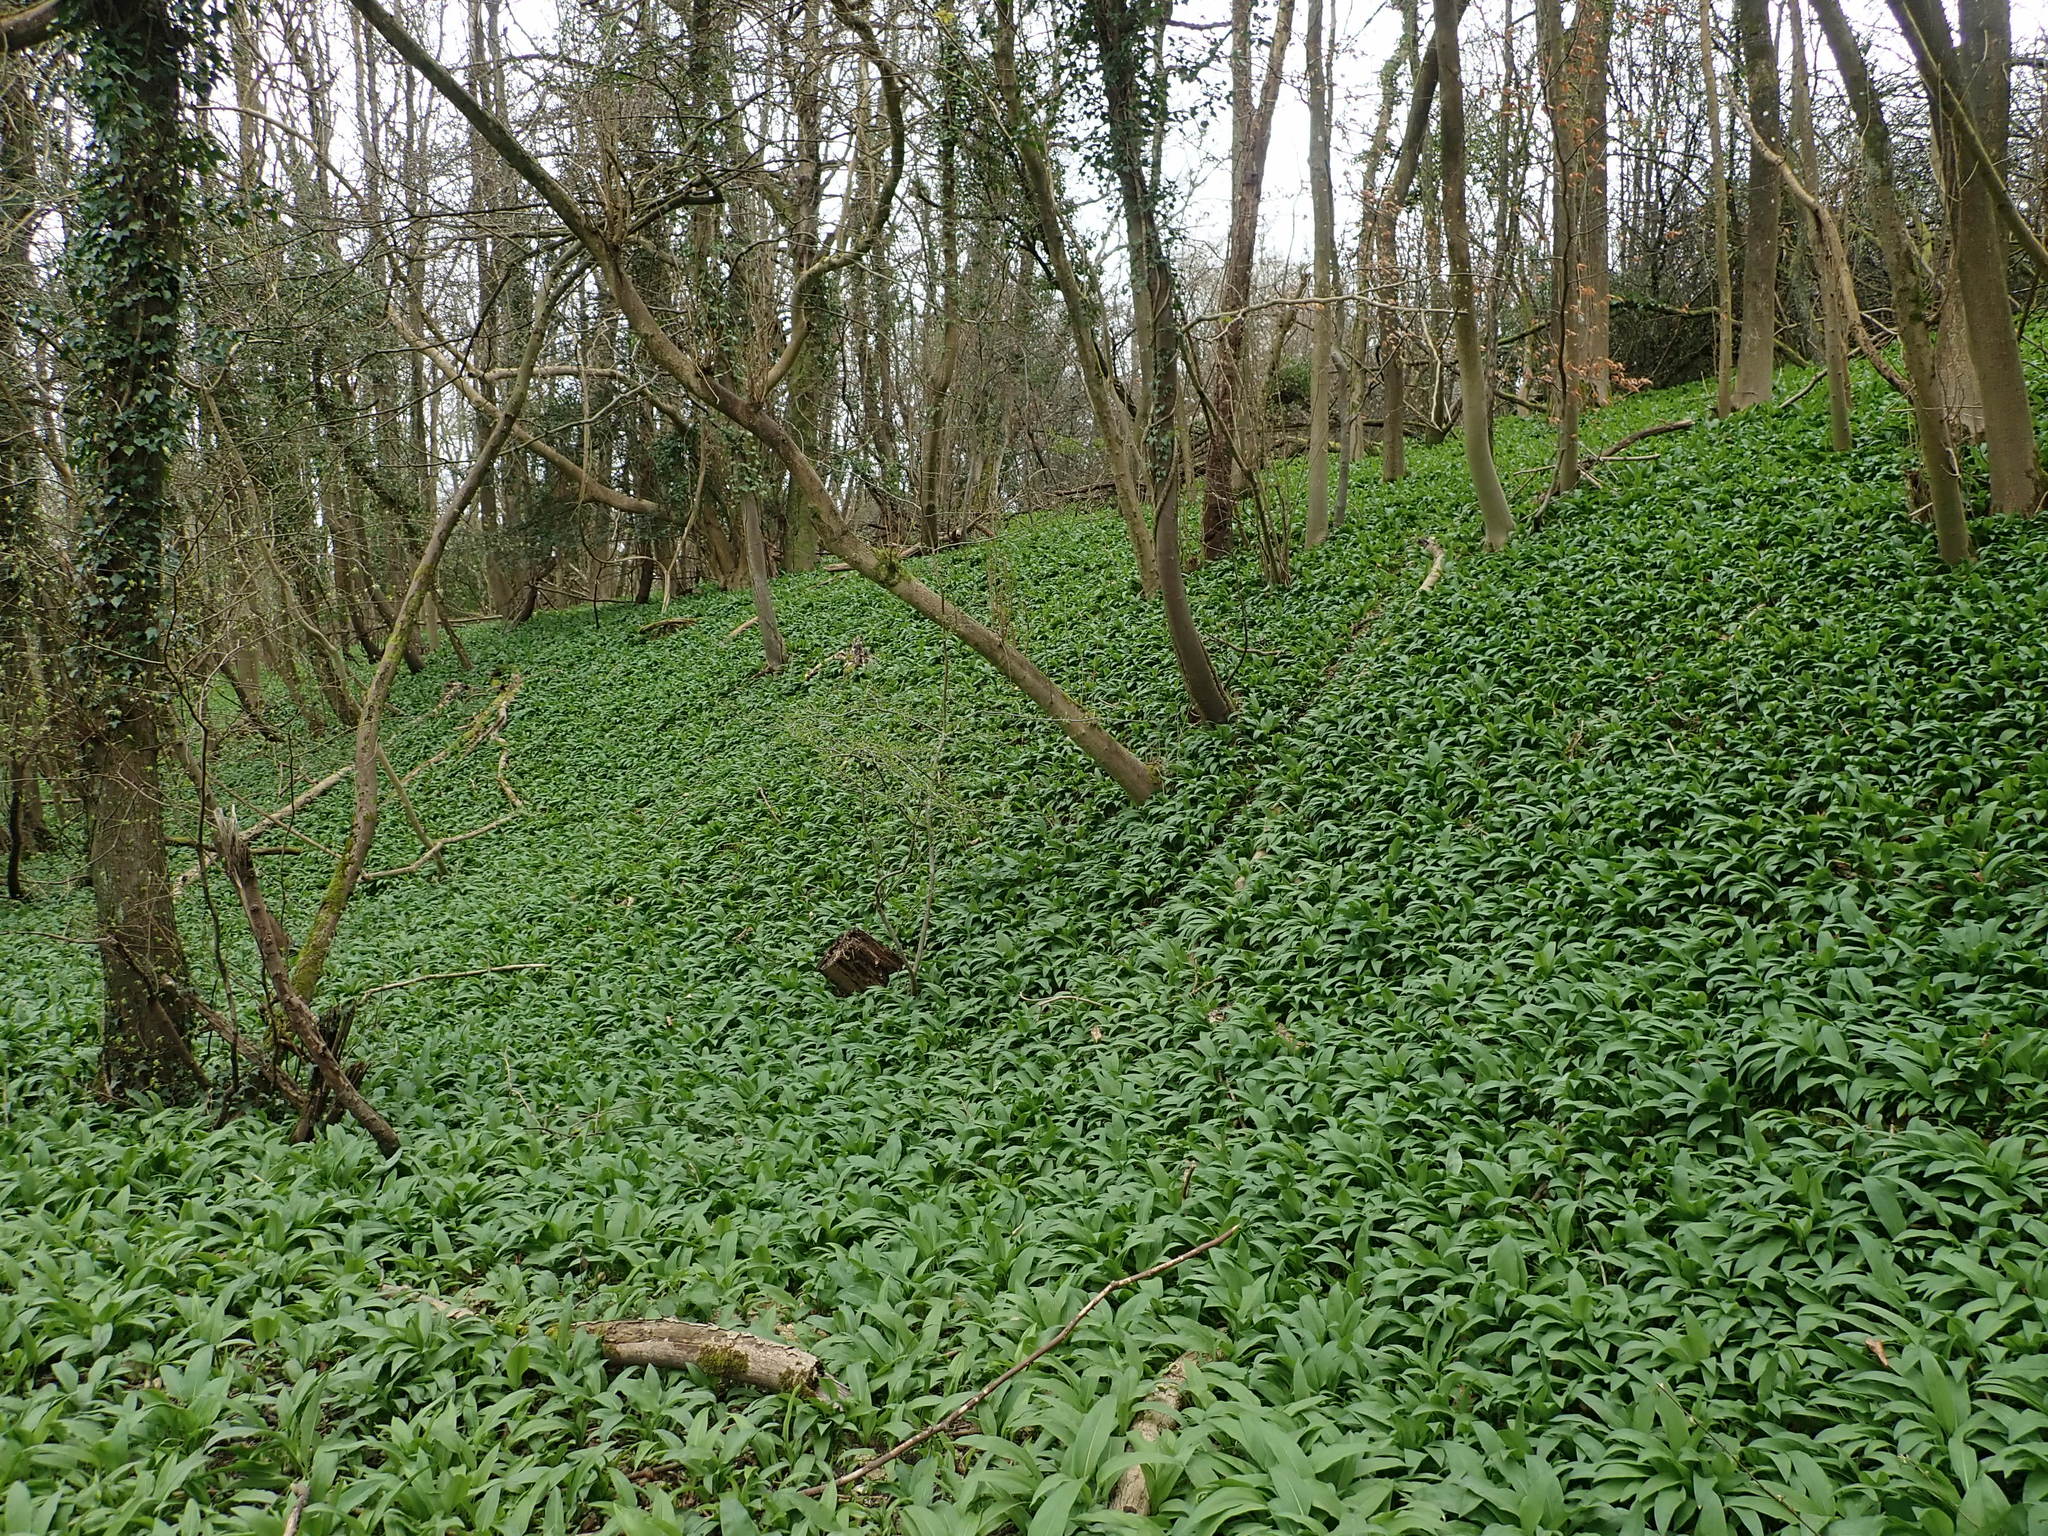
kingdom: Plantae
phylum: Tracheophyta
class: Liliopsida
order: Asparagales
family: Amaryllidaceae
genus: Allium
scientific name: Allium ursinum
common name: Ramsons
